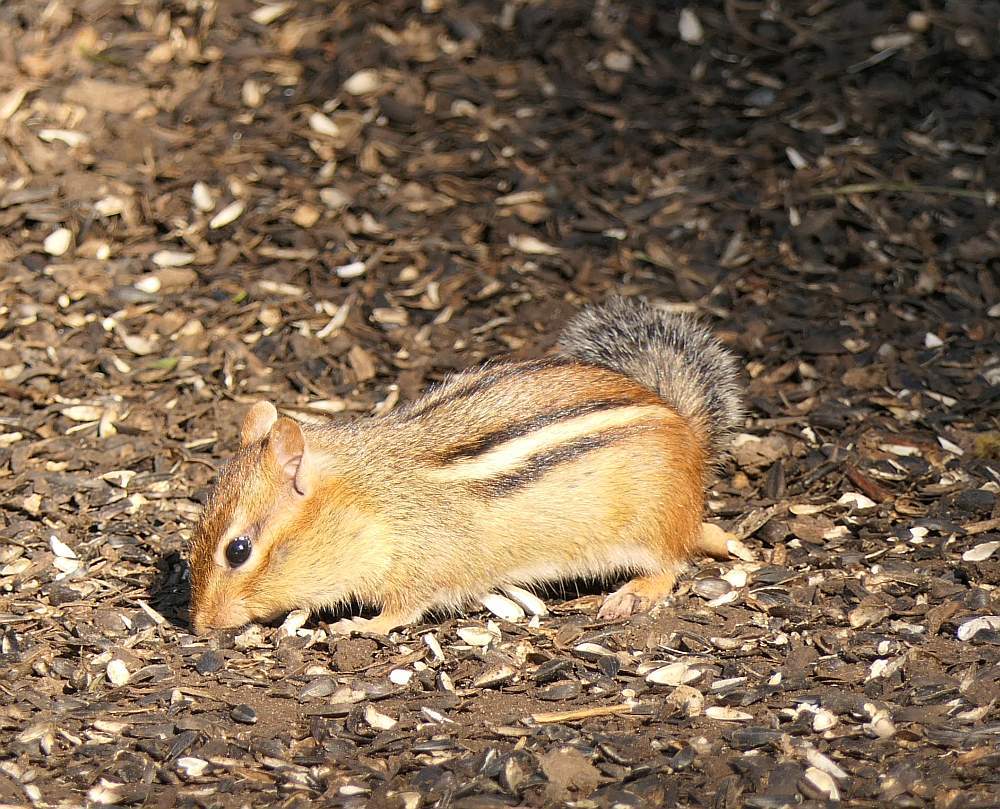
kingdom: Animalia
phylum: Chordata
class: Mammalia
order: Rodentia
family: Sciuridae
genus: Tamias
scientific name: Tamias striatus
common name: Eastern chipmunk
